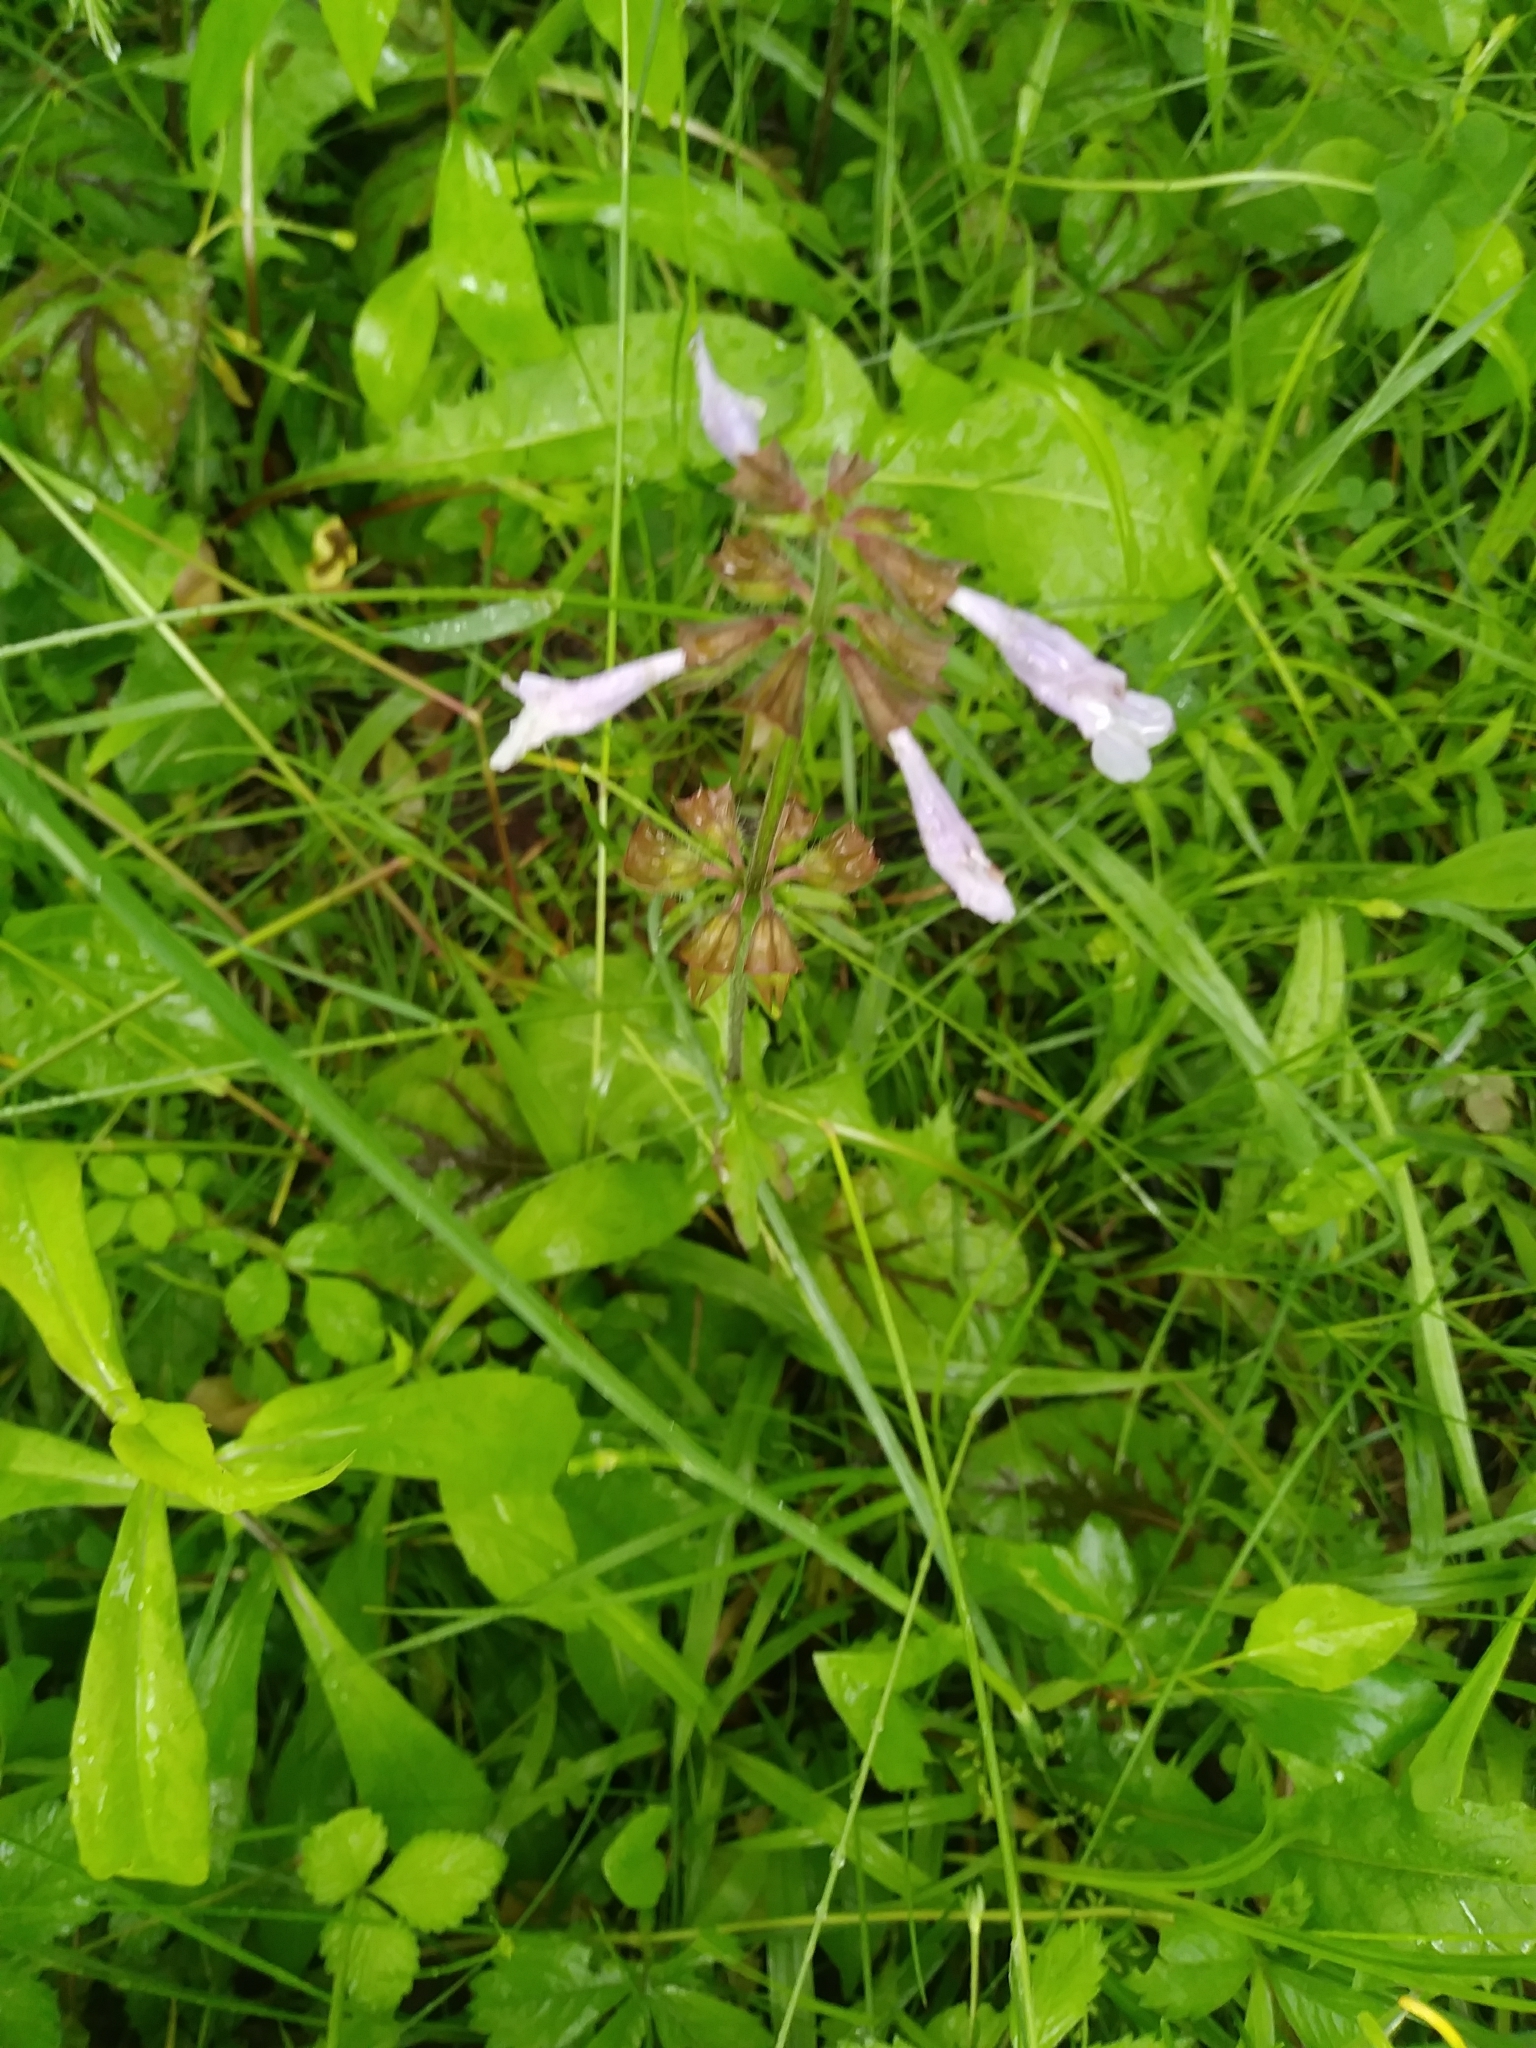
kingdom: Plantae
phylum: Tracheophyta
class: Magnoliopsida
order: Lamiales
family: Lamiaceae
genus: Salvia
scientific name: Salvia lyrata
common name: Cancerweed
